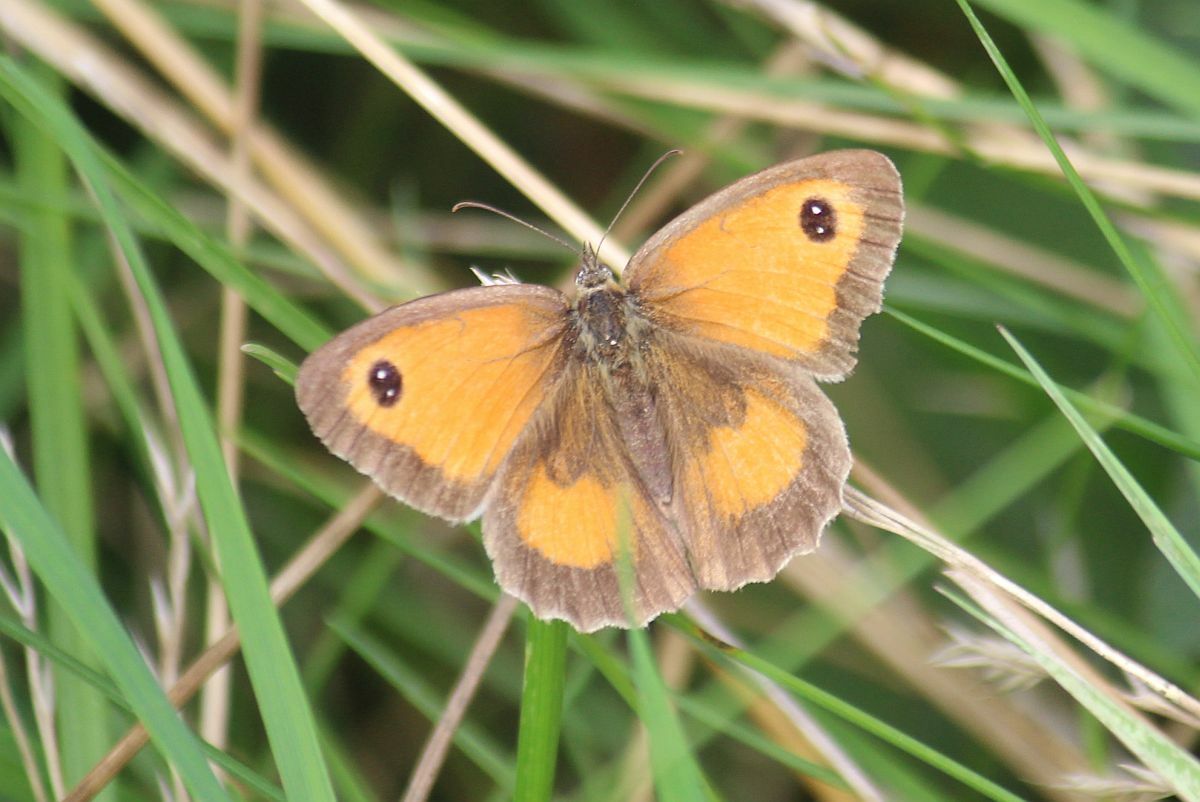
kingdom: Animalia
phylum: Arthropoda
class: Insecta
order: Lepidoptera
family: Nymphalidae
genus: Pyronia
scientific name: Pyronia tithonus
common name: Gatekeeper
